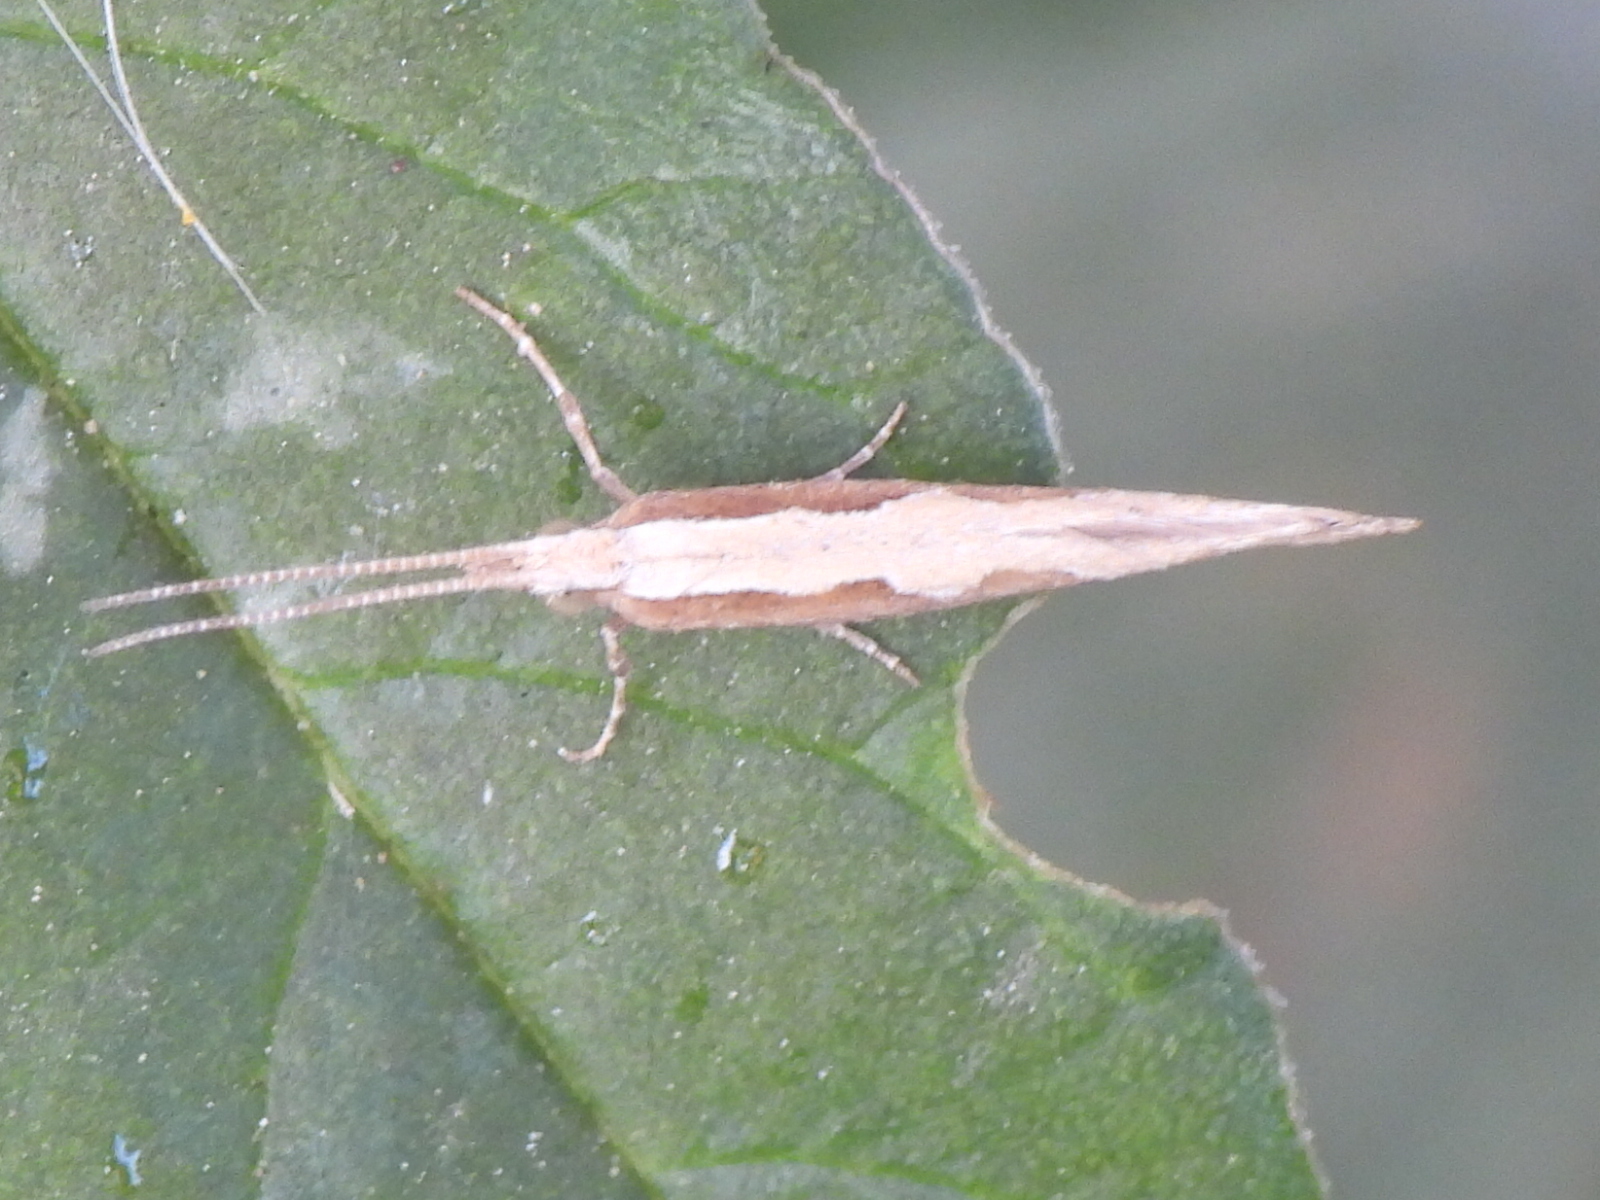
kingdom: Animalia
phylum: Arthropoda
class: Insecta
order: Lepidoptera
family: Plutellidae
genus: Plutella
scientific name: Plutella xylostella
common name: Diamond-back moth
